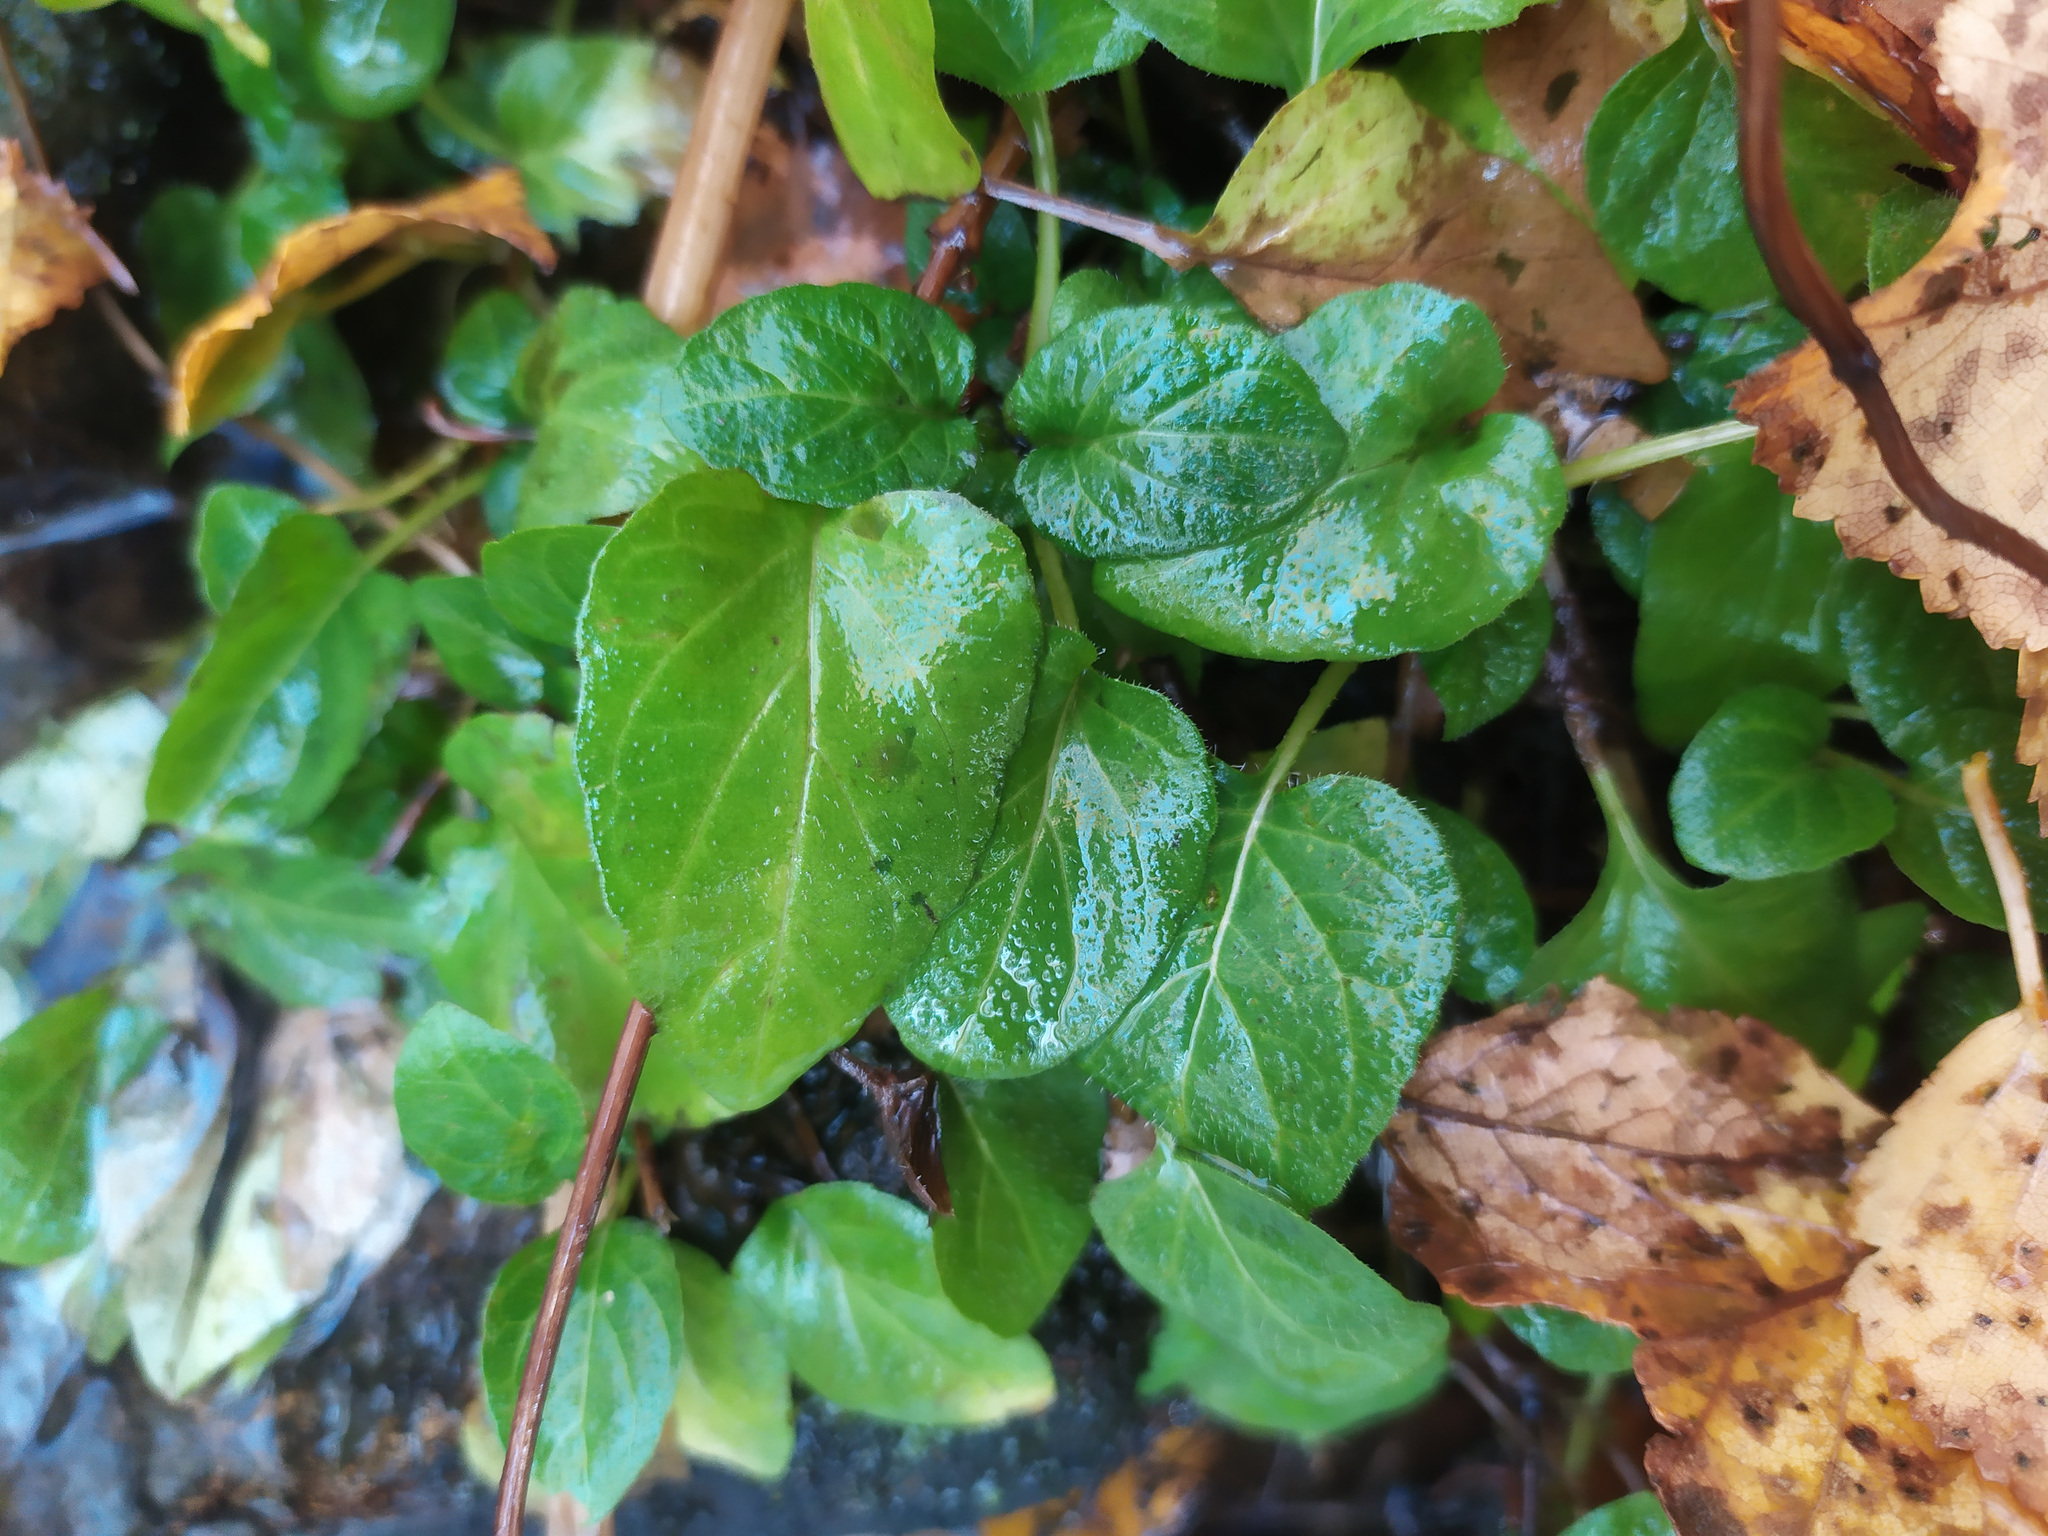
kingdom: Plantae
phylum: Tracheophyta
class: Magnoliopsida
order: Lamiales
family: Lamiaceae
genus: Prunella
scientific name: Prunella vulgaris
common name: Heal-all
